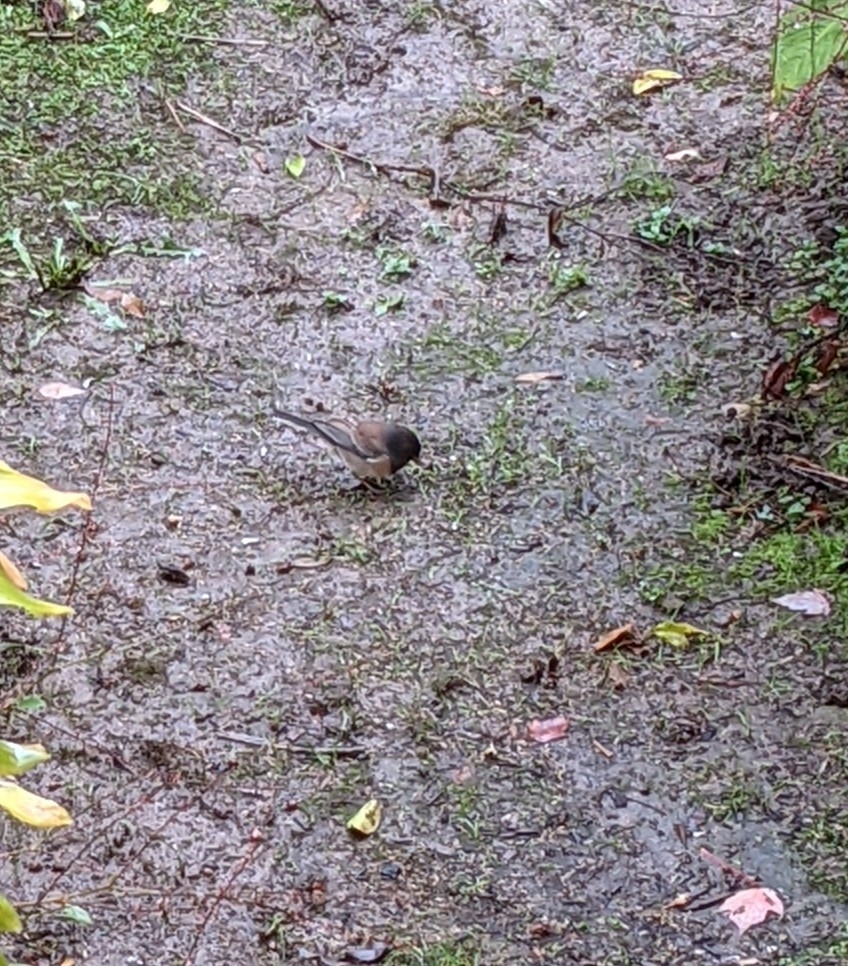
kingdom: Animalia
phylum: Chordata
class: Aves
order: Passeriformes
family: Passerellidae
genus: Junco
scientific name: Junco hyemalis
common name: Dark-eyed junco
